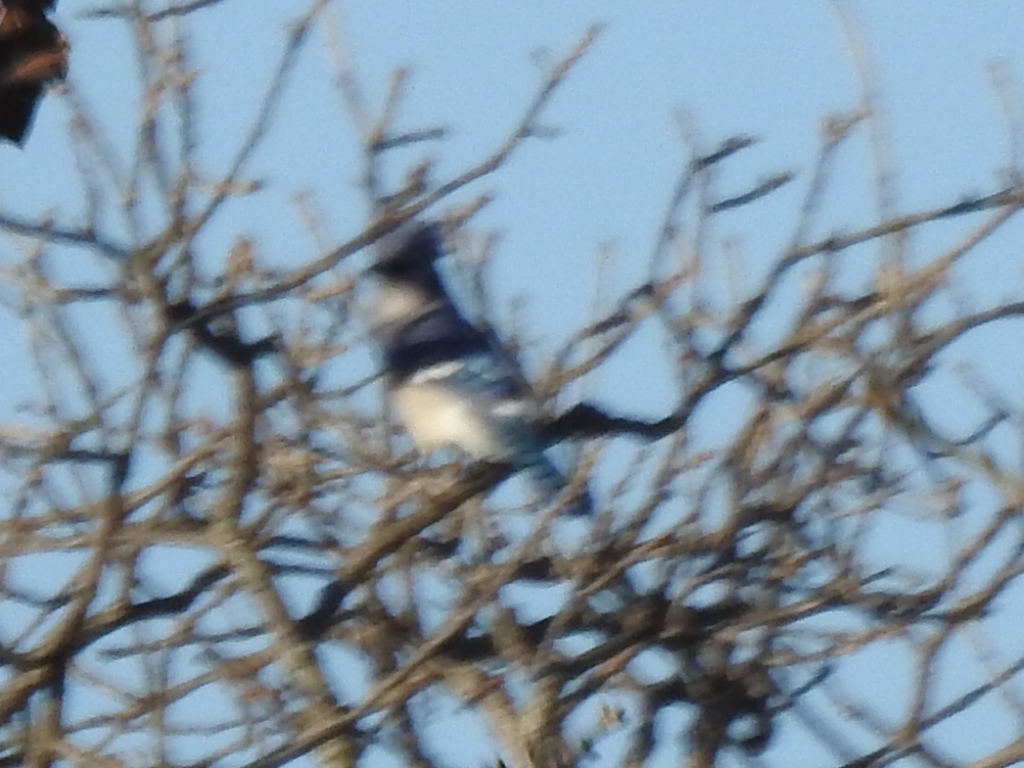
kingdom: Animalia
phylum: Chordata
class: Aves
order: Passeriformes
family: Corvidae
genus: Cyanocitta
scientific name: Cyanocitta cristata
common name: Blue jay
